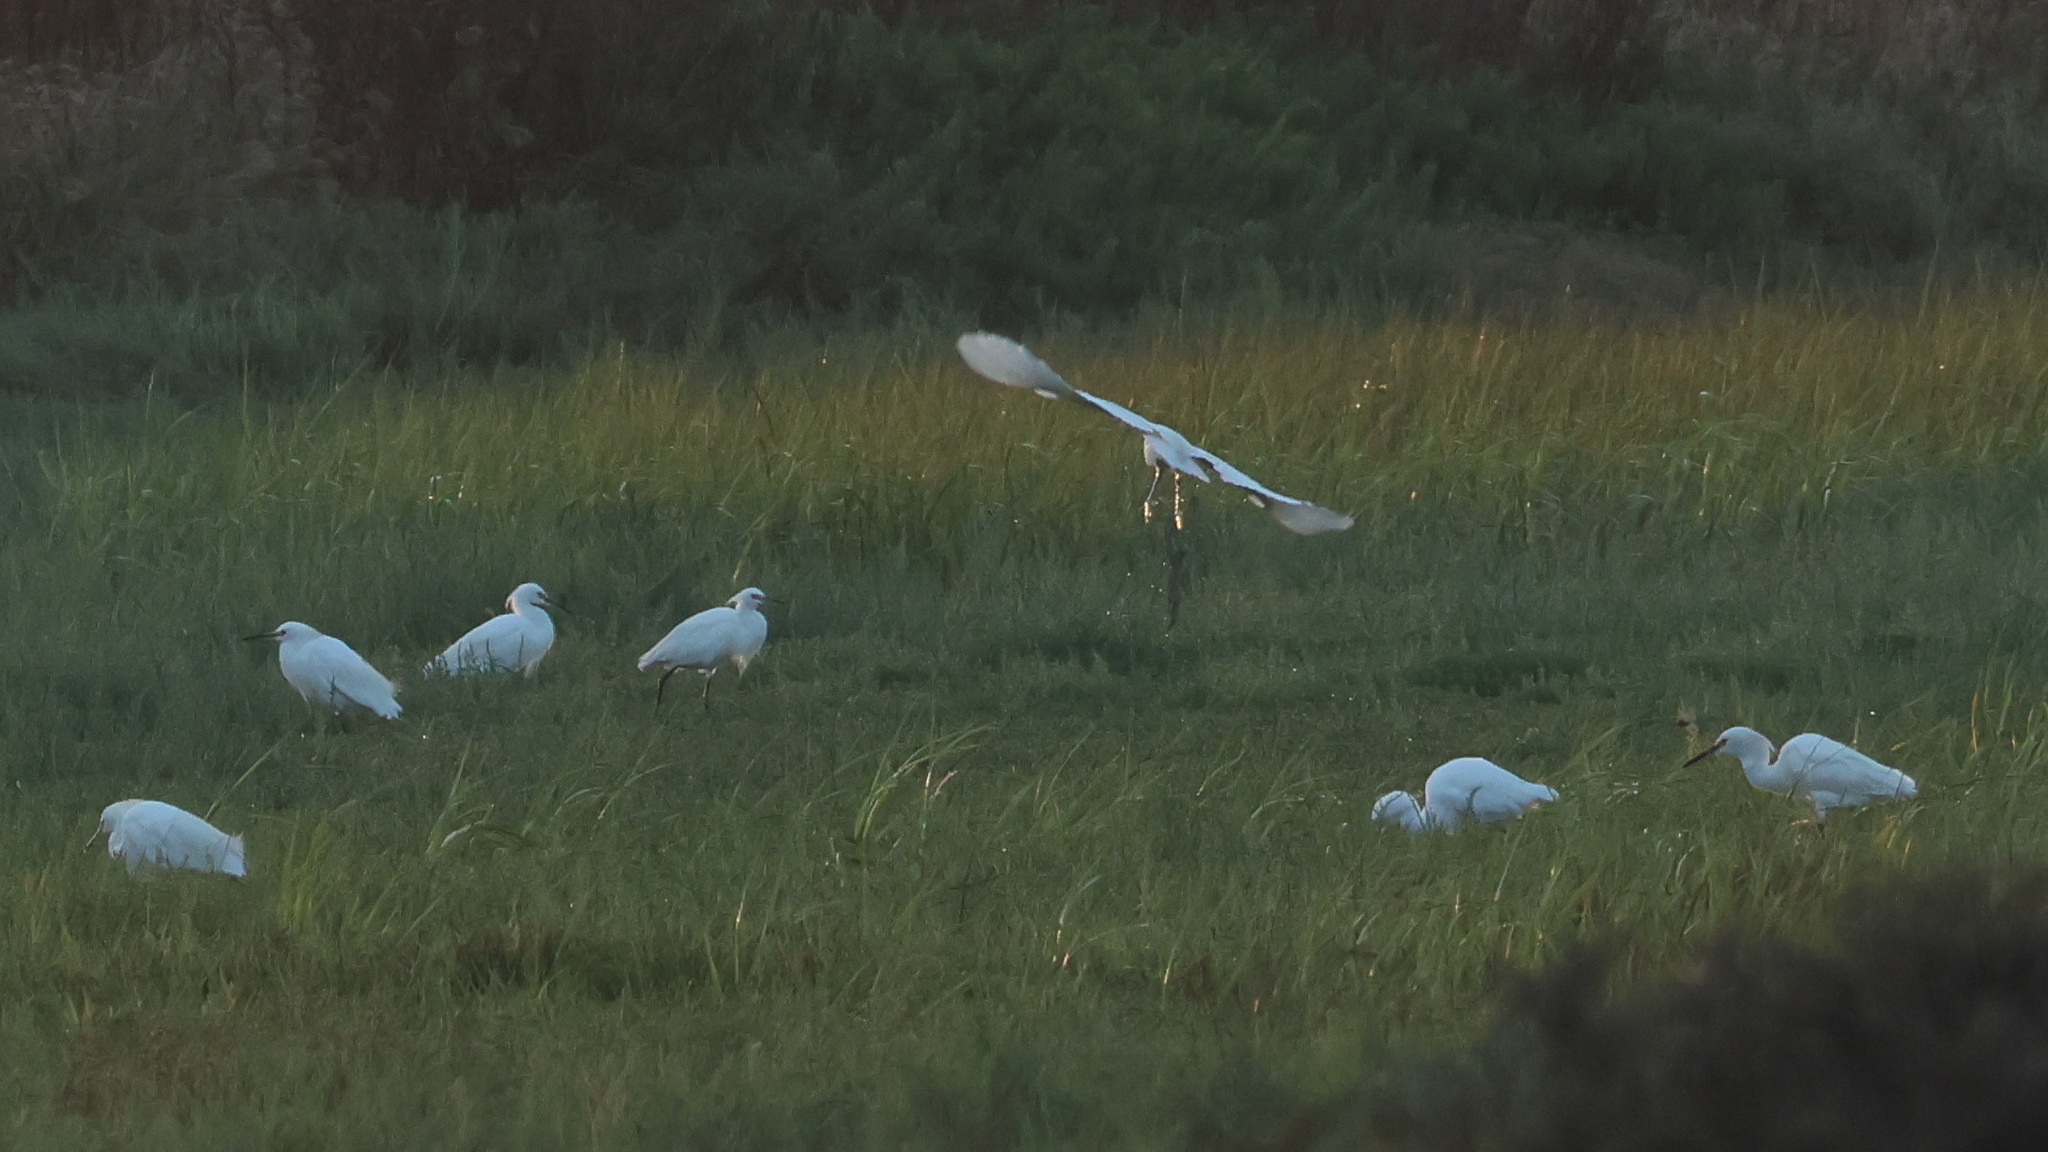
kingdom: Animalia
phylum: Chordata
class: Aves
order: Pelecaniformes
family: Ardeidae
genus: Egretta
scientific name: Egretta thula
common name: Snowy egret
